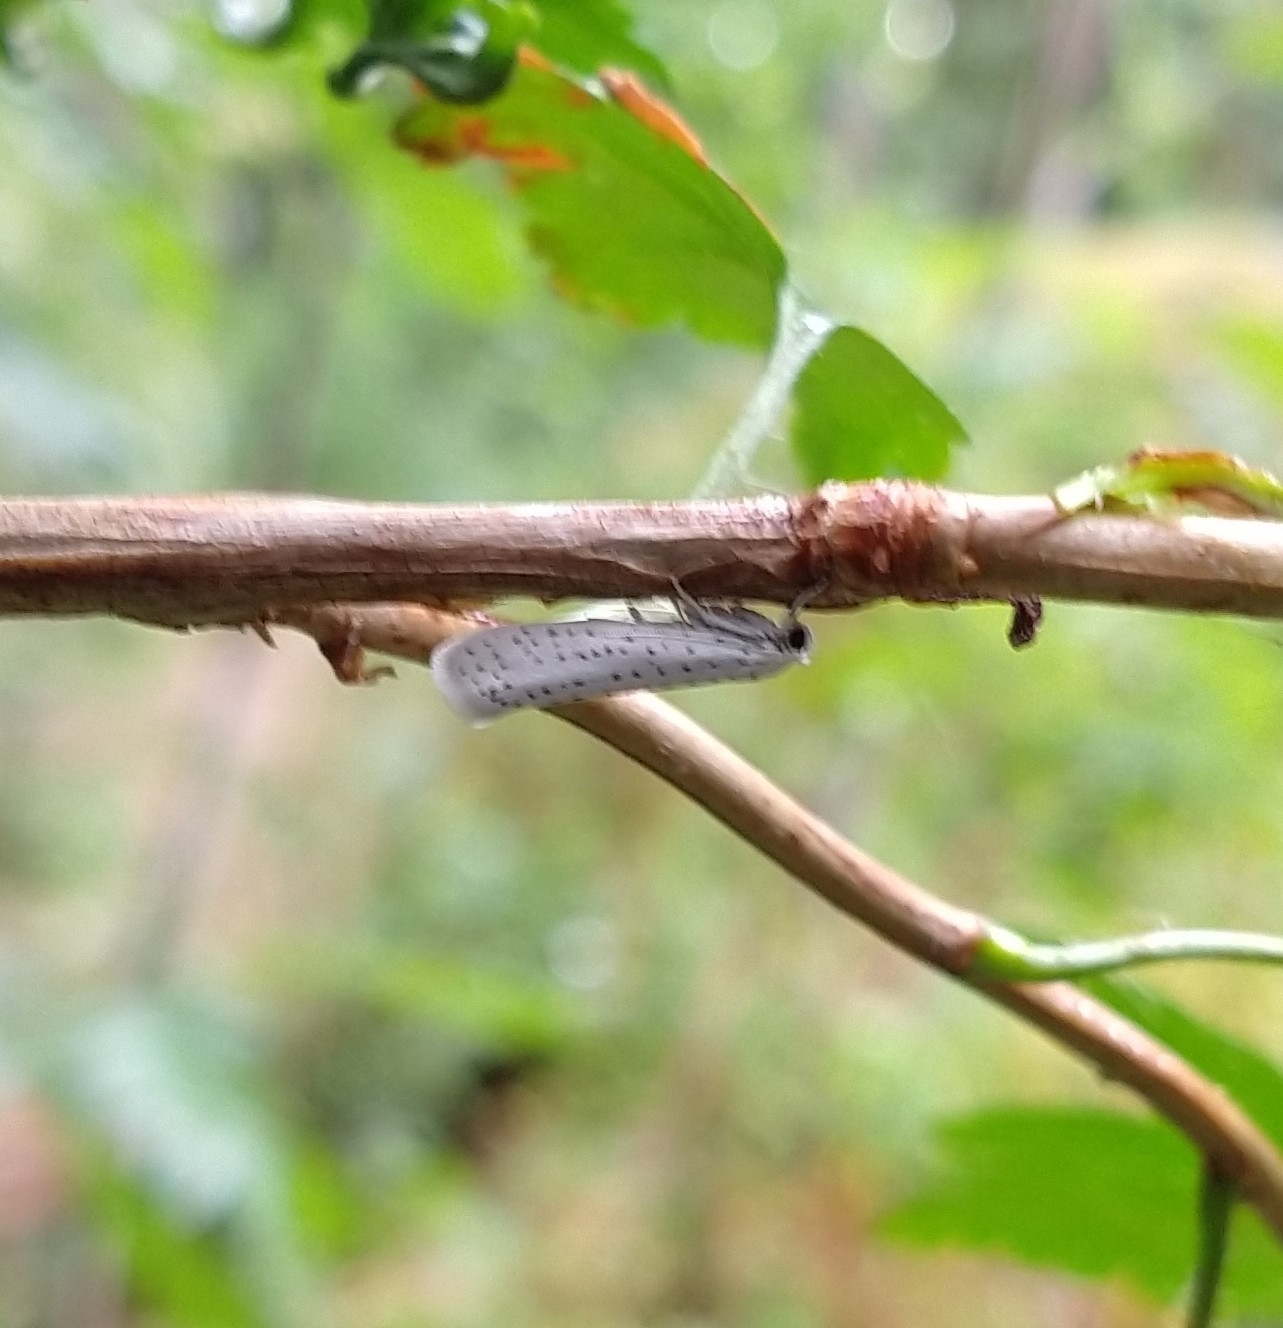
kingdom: Animalia
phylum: Arthropoda
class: Insecta
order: Lepidoptera
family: Yponomeutidae
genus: Yponomeuta
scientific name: Yponomeuta evonymella
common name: Bird-cherry ermine
